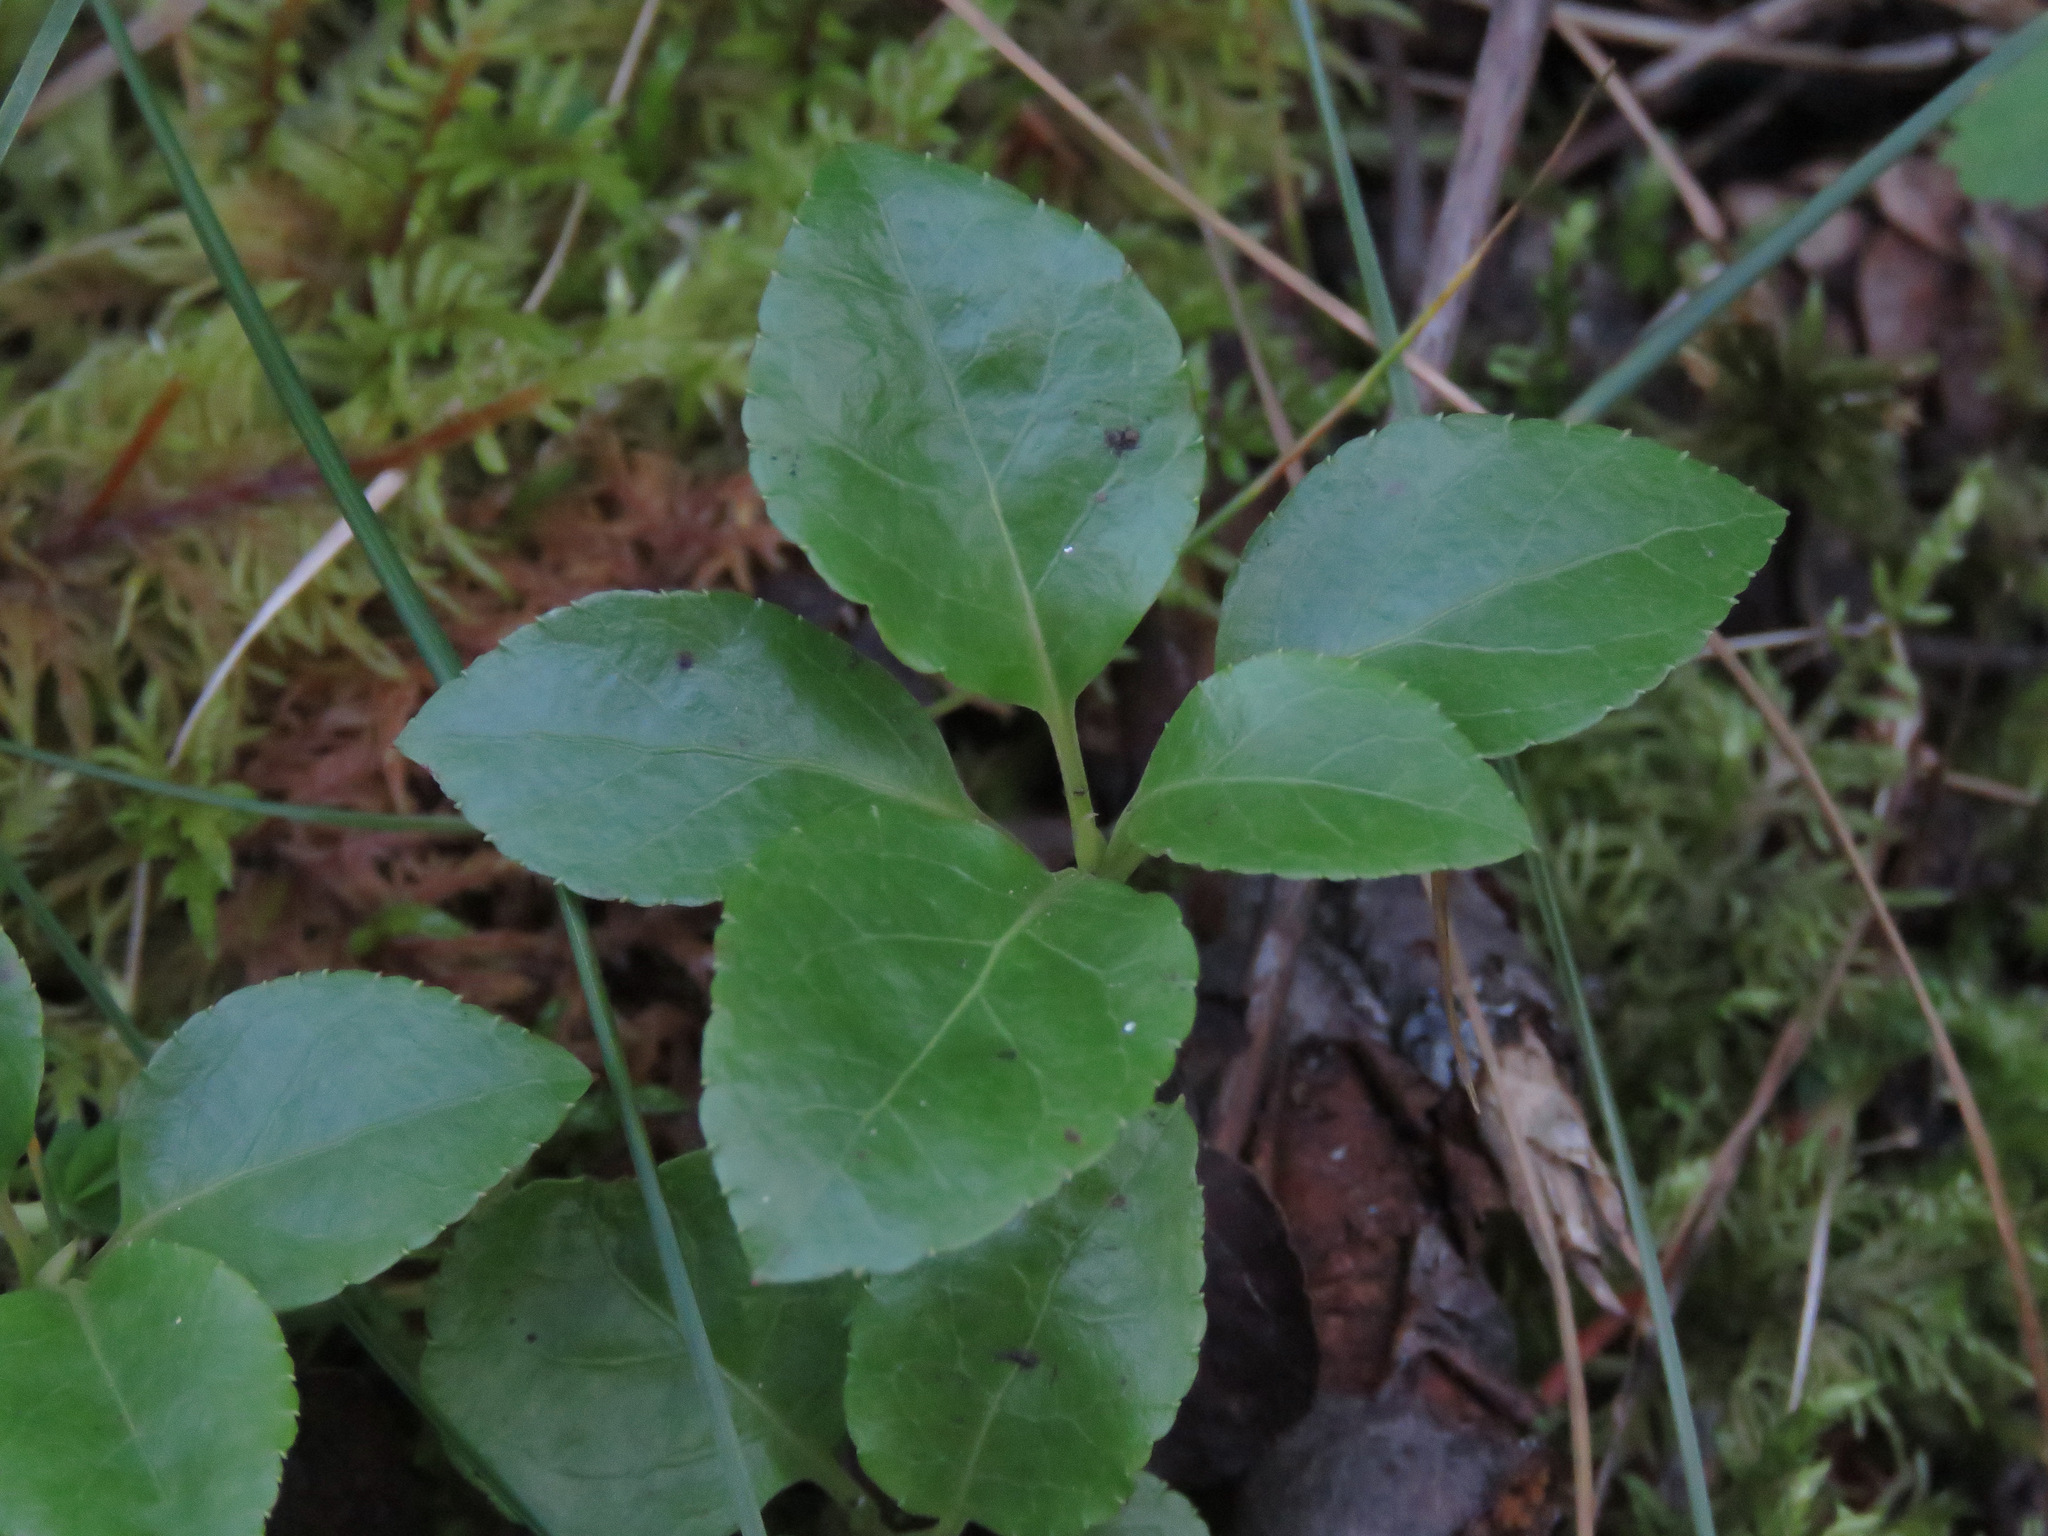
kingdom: Plantae
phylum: Tracheophyta
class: Magnoliopsida
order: Ericales
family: Ericaceae
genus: Orthilia
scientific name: Orthilia secunda
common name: One-sided orthilia
